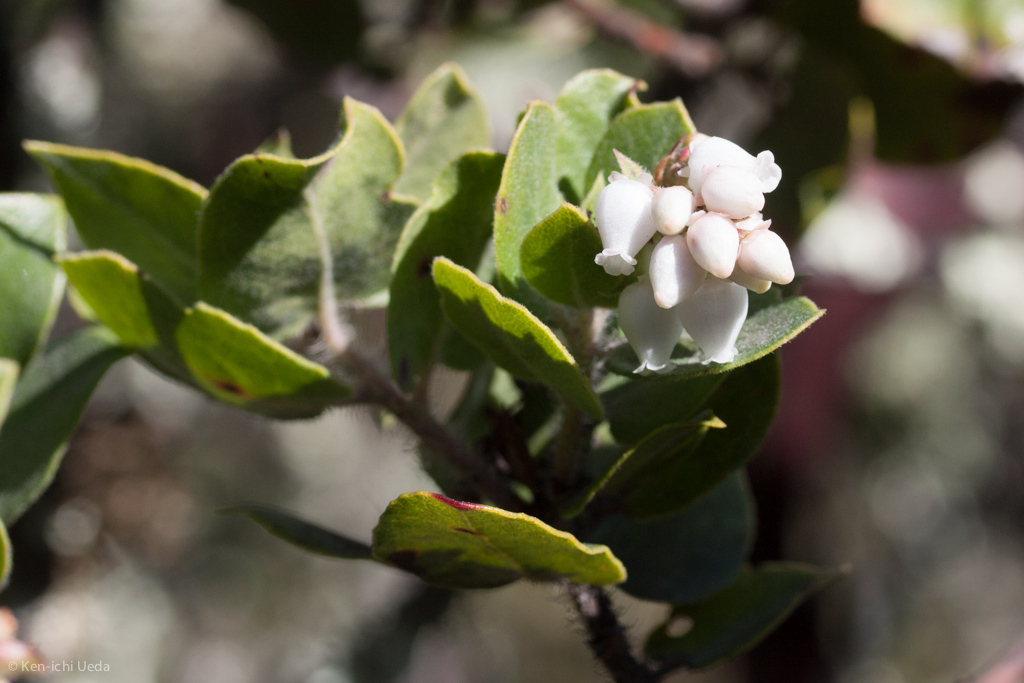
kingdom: Plantae
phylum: Tracheophyta
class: Magnoliopsida
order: Ericales
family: Ericaceae
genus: Arctostaphylos
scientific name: Arctostaphylos pallida
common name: Pallid manzanita
